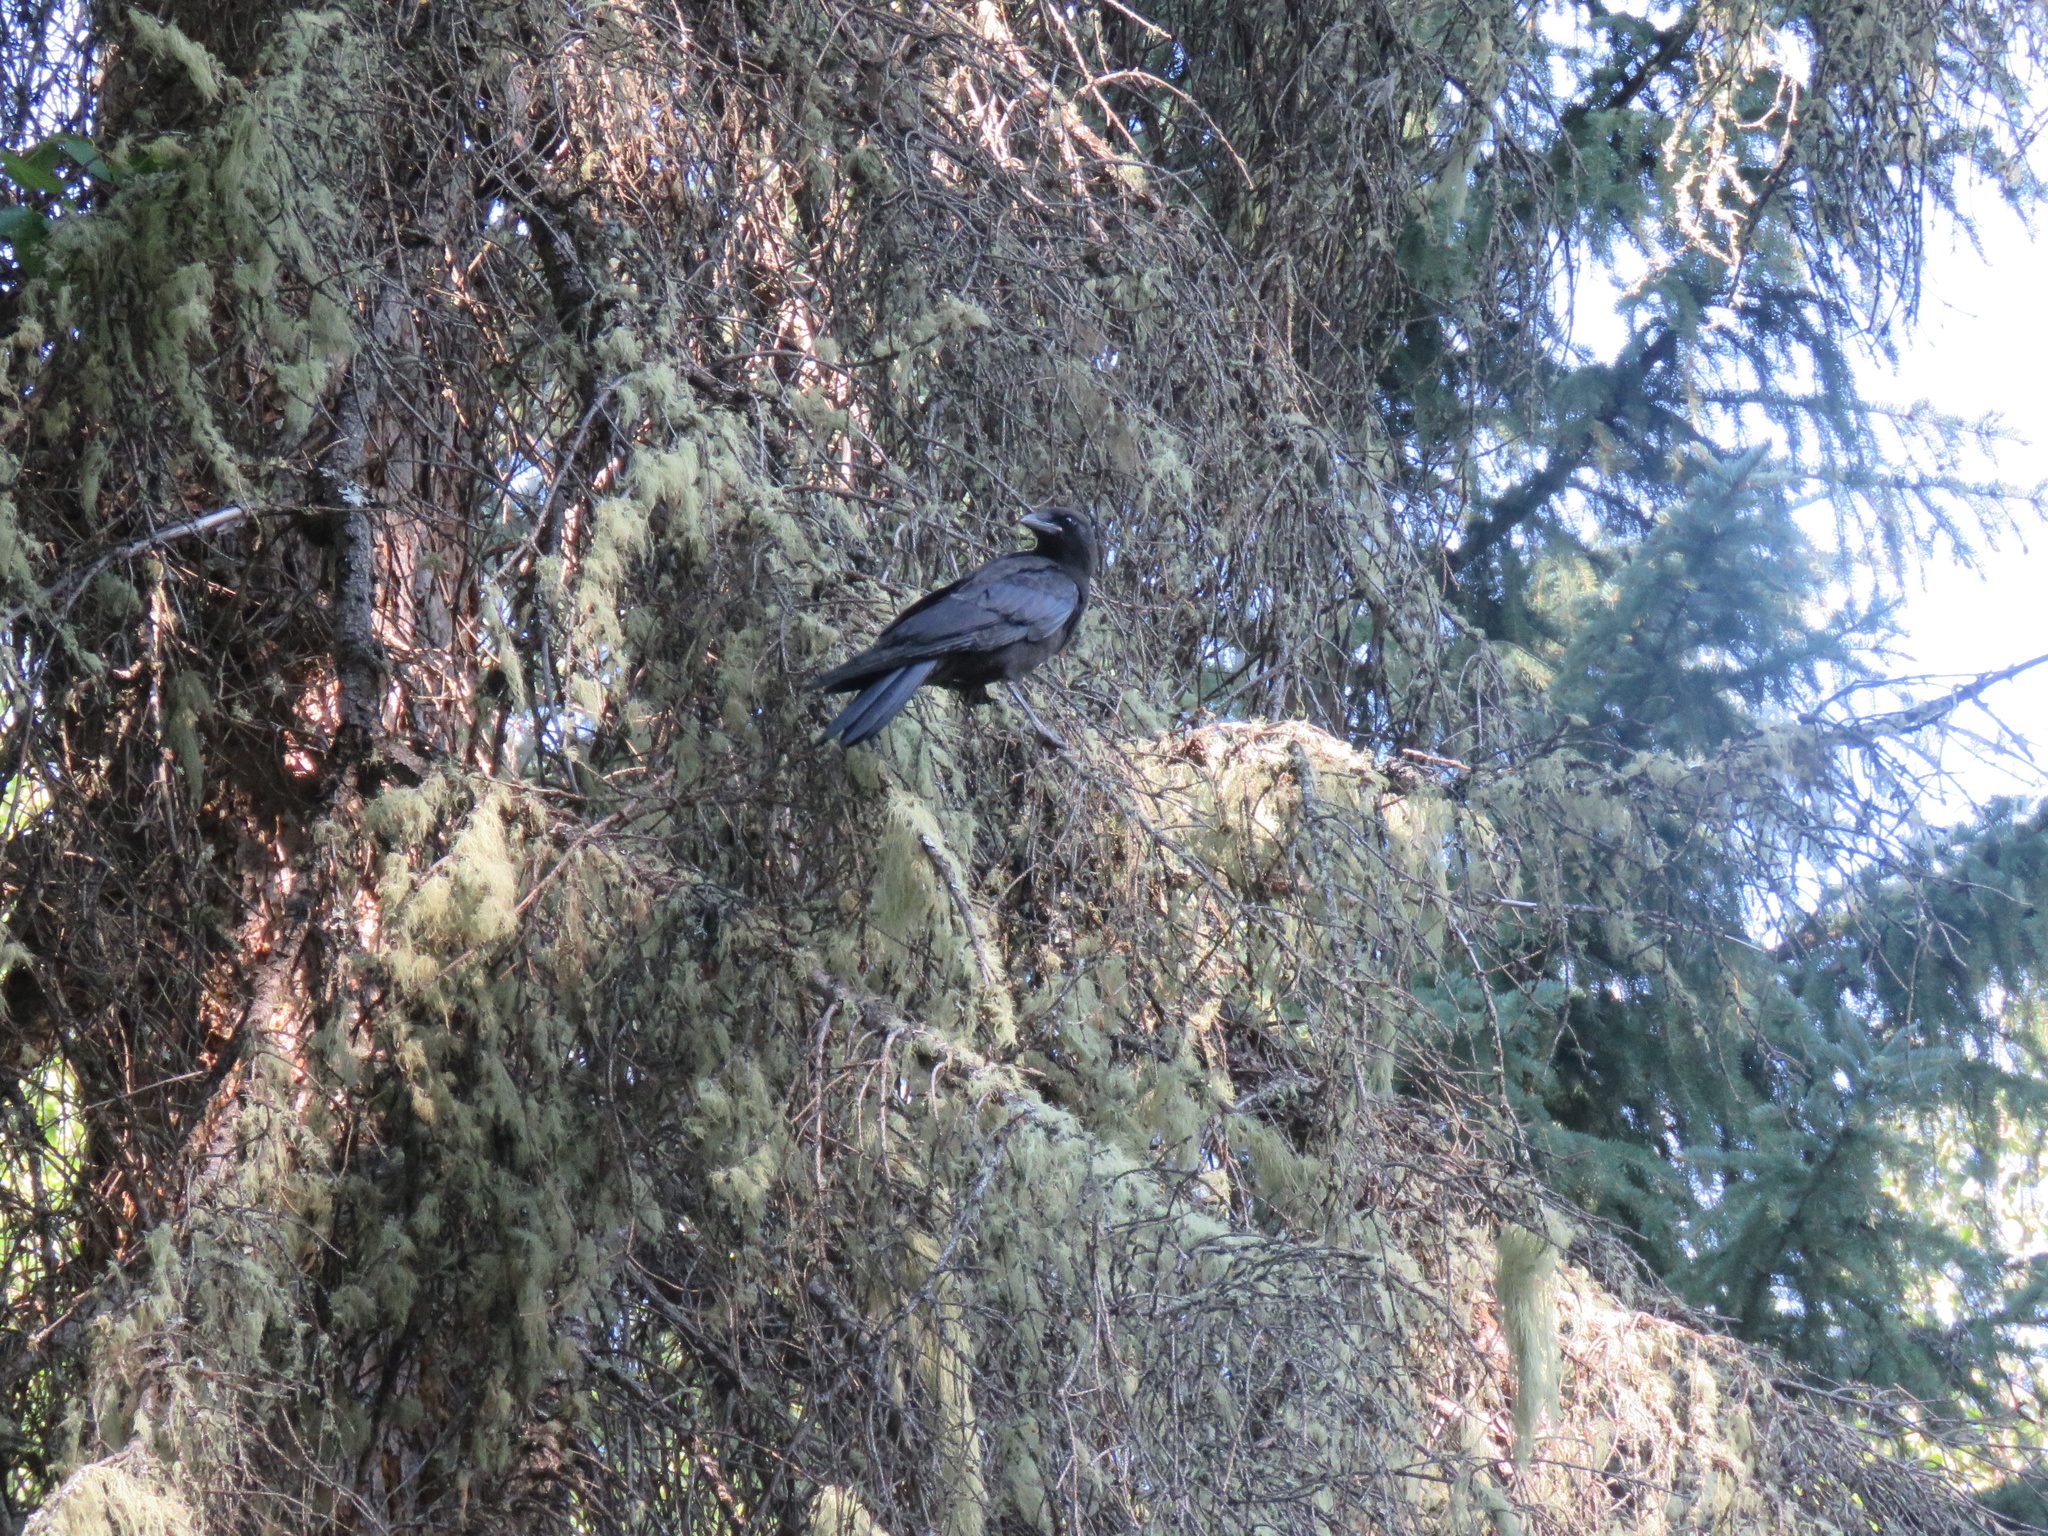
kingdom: Animalia
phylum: Chordata
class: Aves
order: Passeriformes
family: Corvidae
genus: Corvus
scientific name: Corvus brachyrhynchos
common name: American crow
